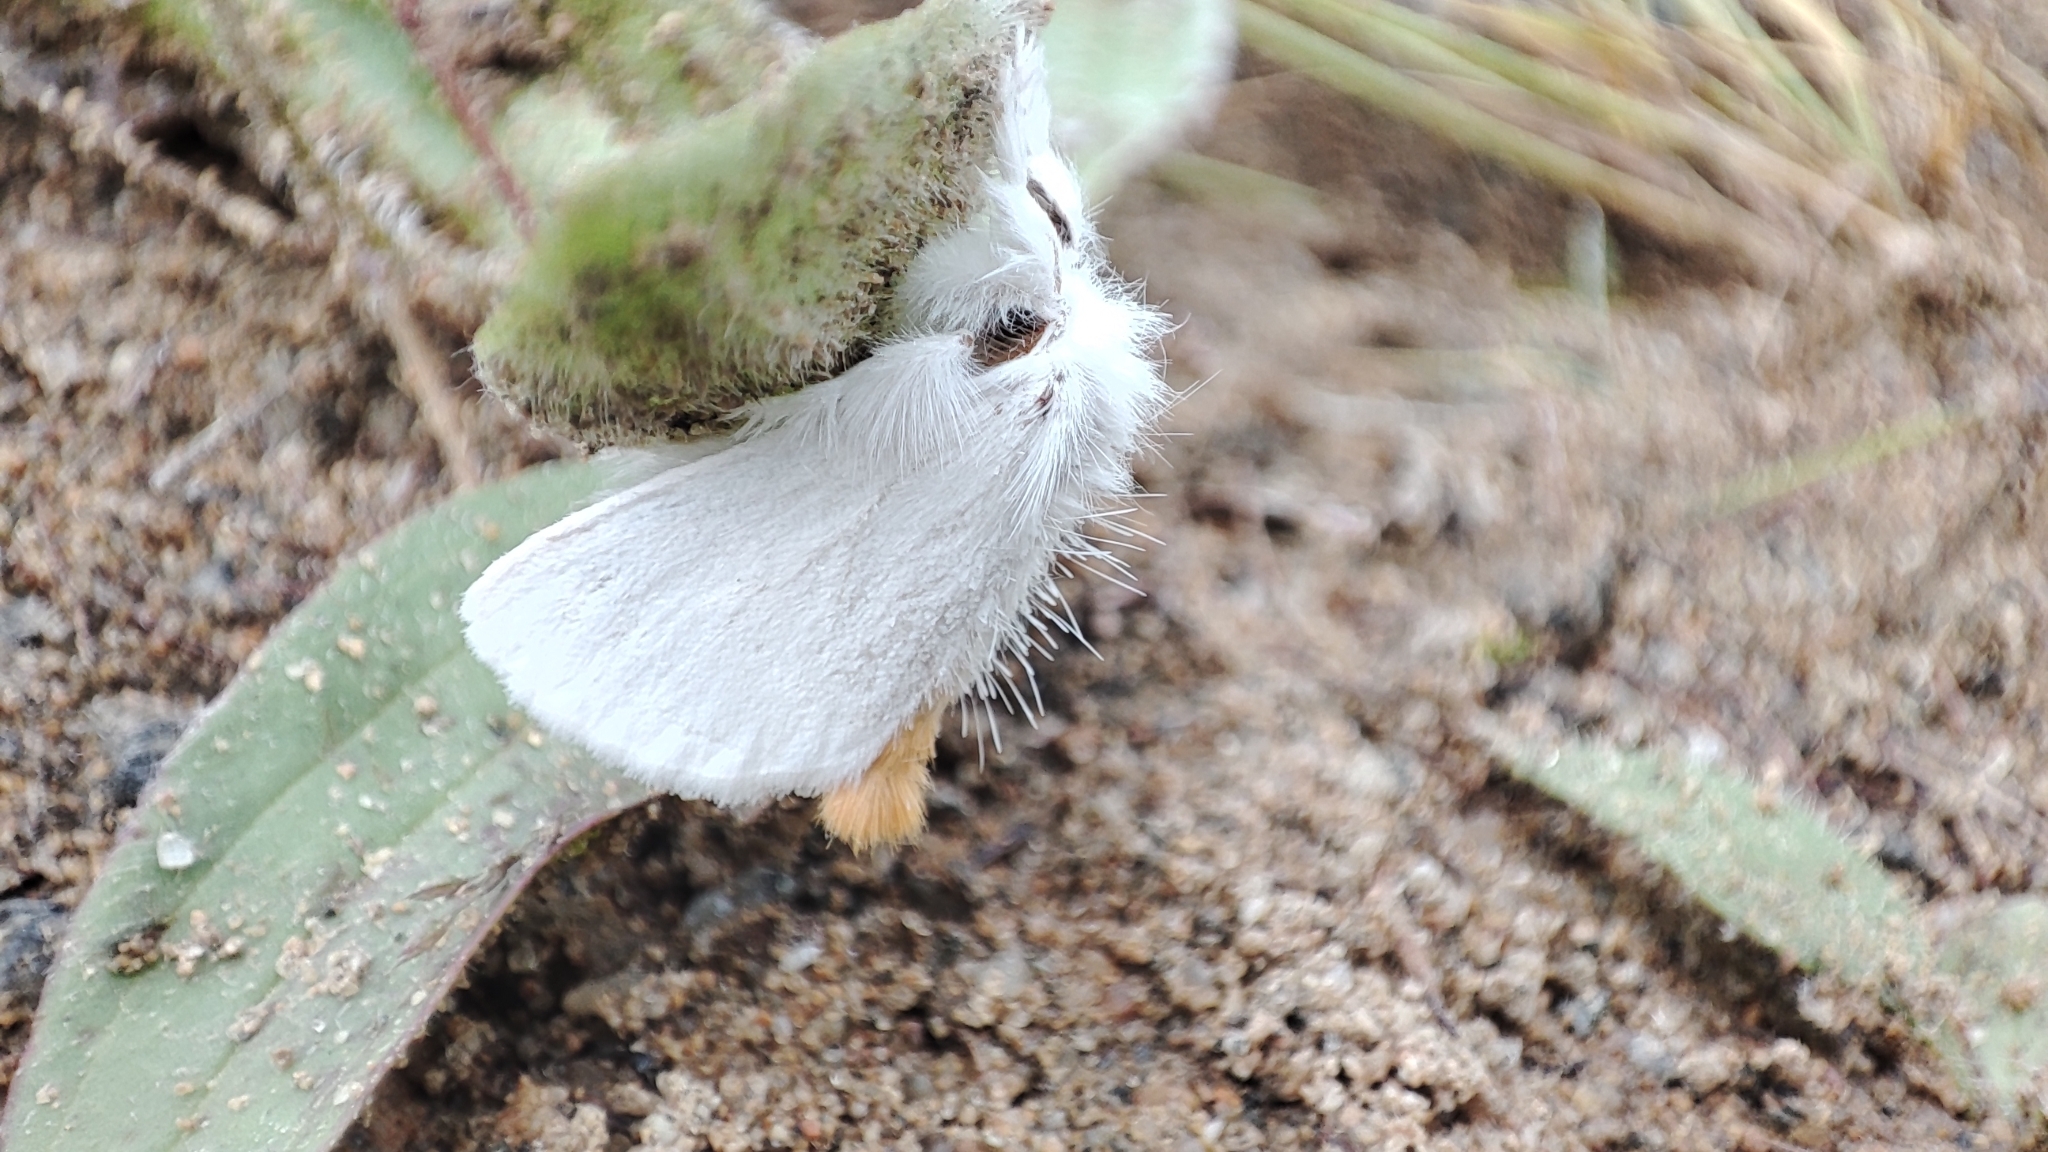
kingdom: Animalia
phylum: Arthropoda
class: Insecta
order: Lepidoptera
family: Erebidae
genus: Sphrageidus
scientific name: Sphrageidus similis
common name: Yellow-tail
